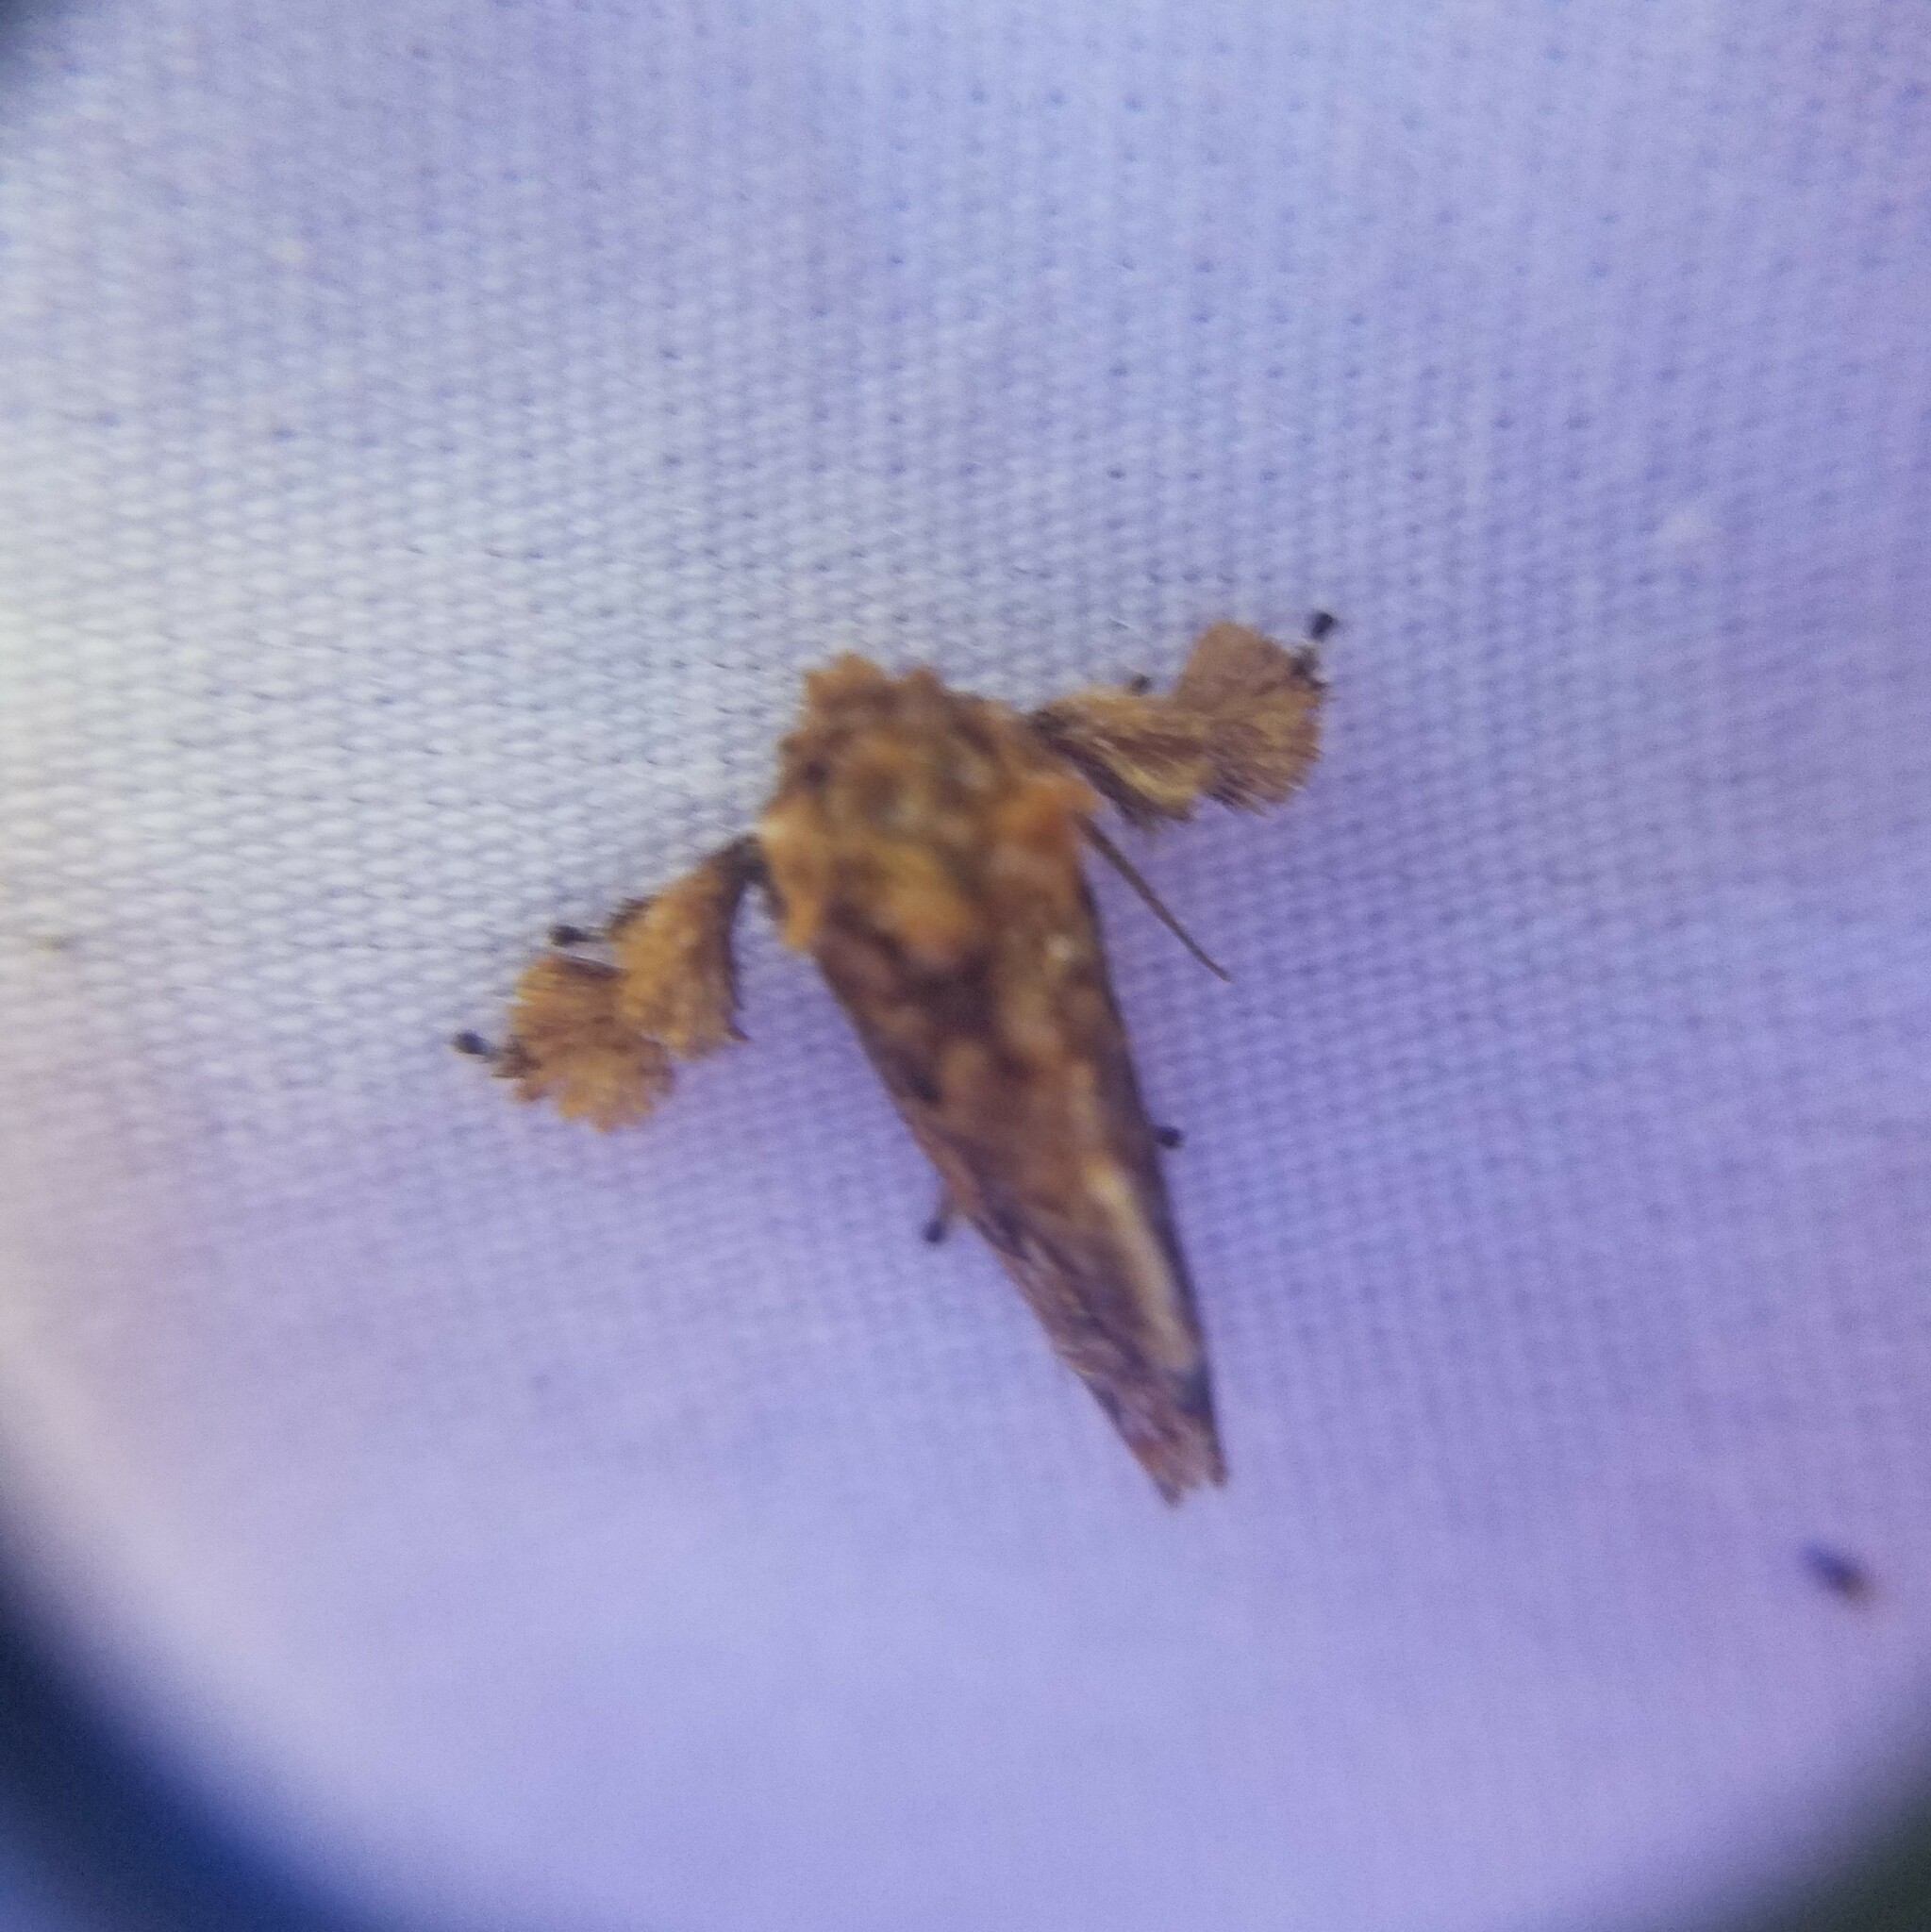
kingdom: Animalia
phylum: Arthropoda
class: Insecta
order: Lepidoptera
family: Limacodidae
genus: Isochaetes
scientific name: Isochaetes beutenmuelleri
